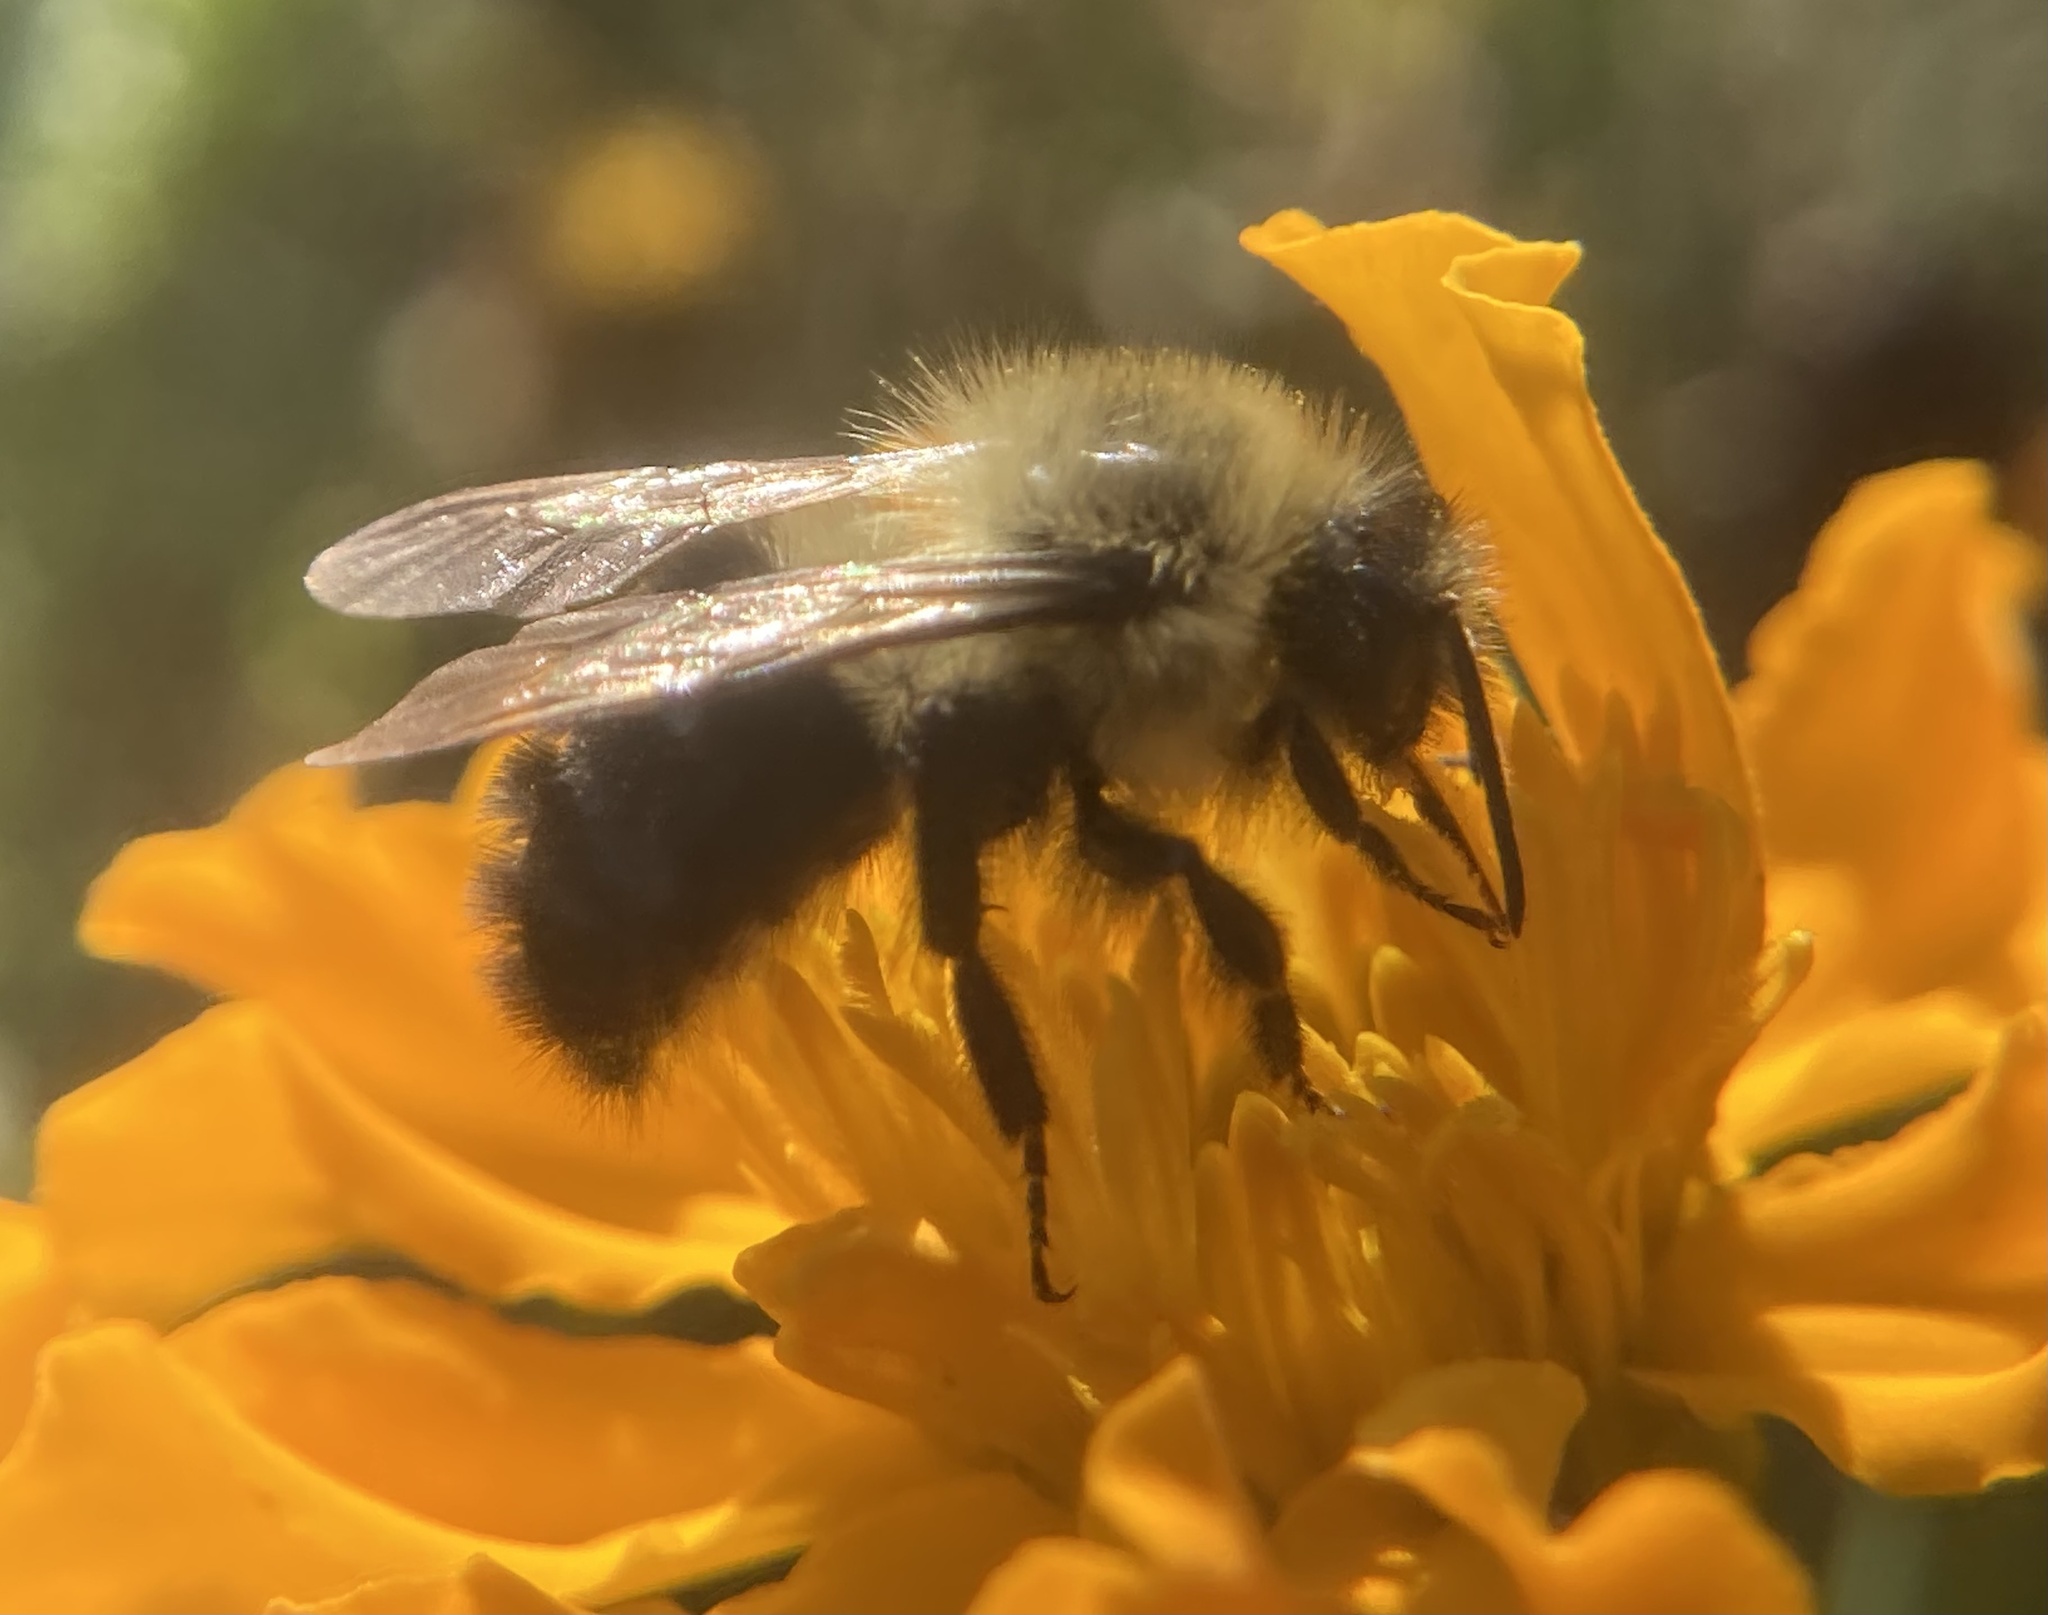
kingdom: Animalia
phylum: Arthropoda
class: Insecta
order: Hymenoptera
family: Apidae
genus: Bombus
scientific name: Bombus impatiens
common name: Common eastern bumble bee
